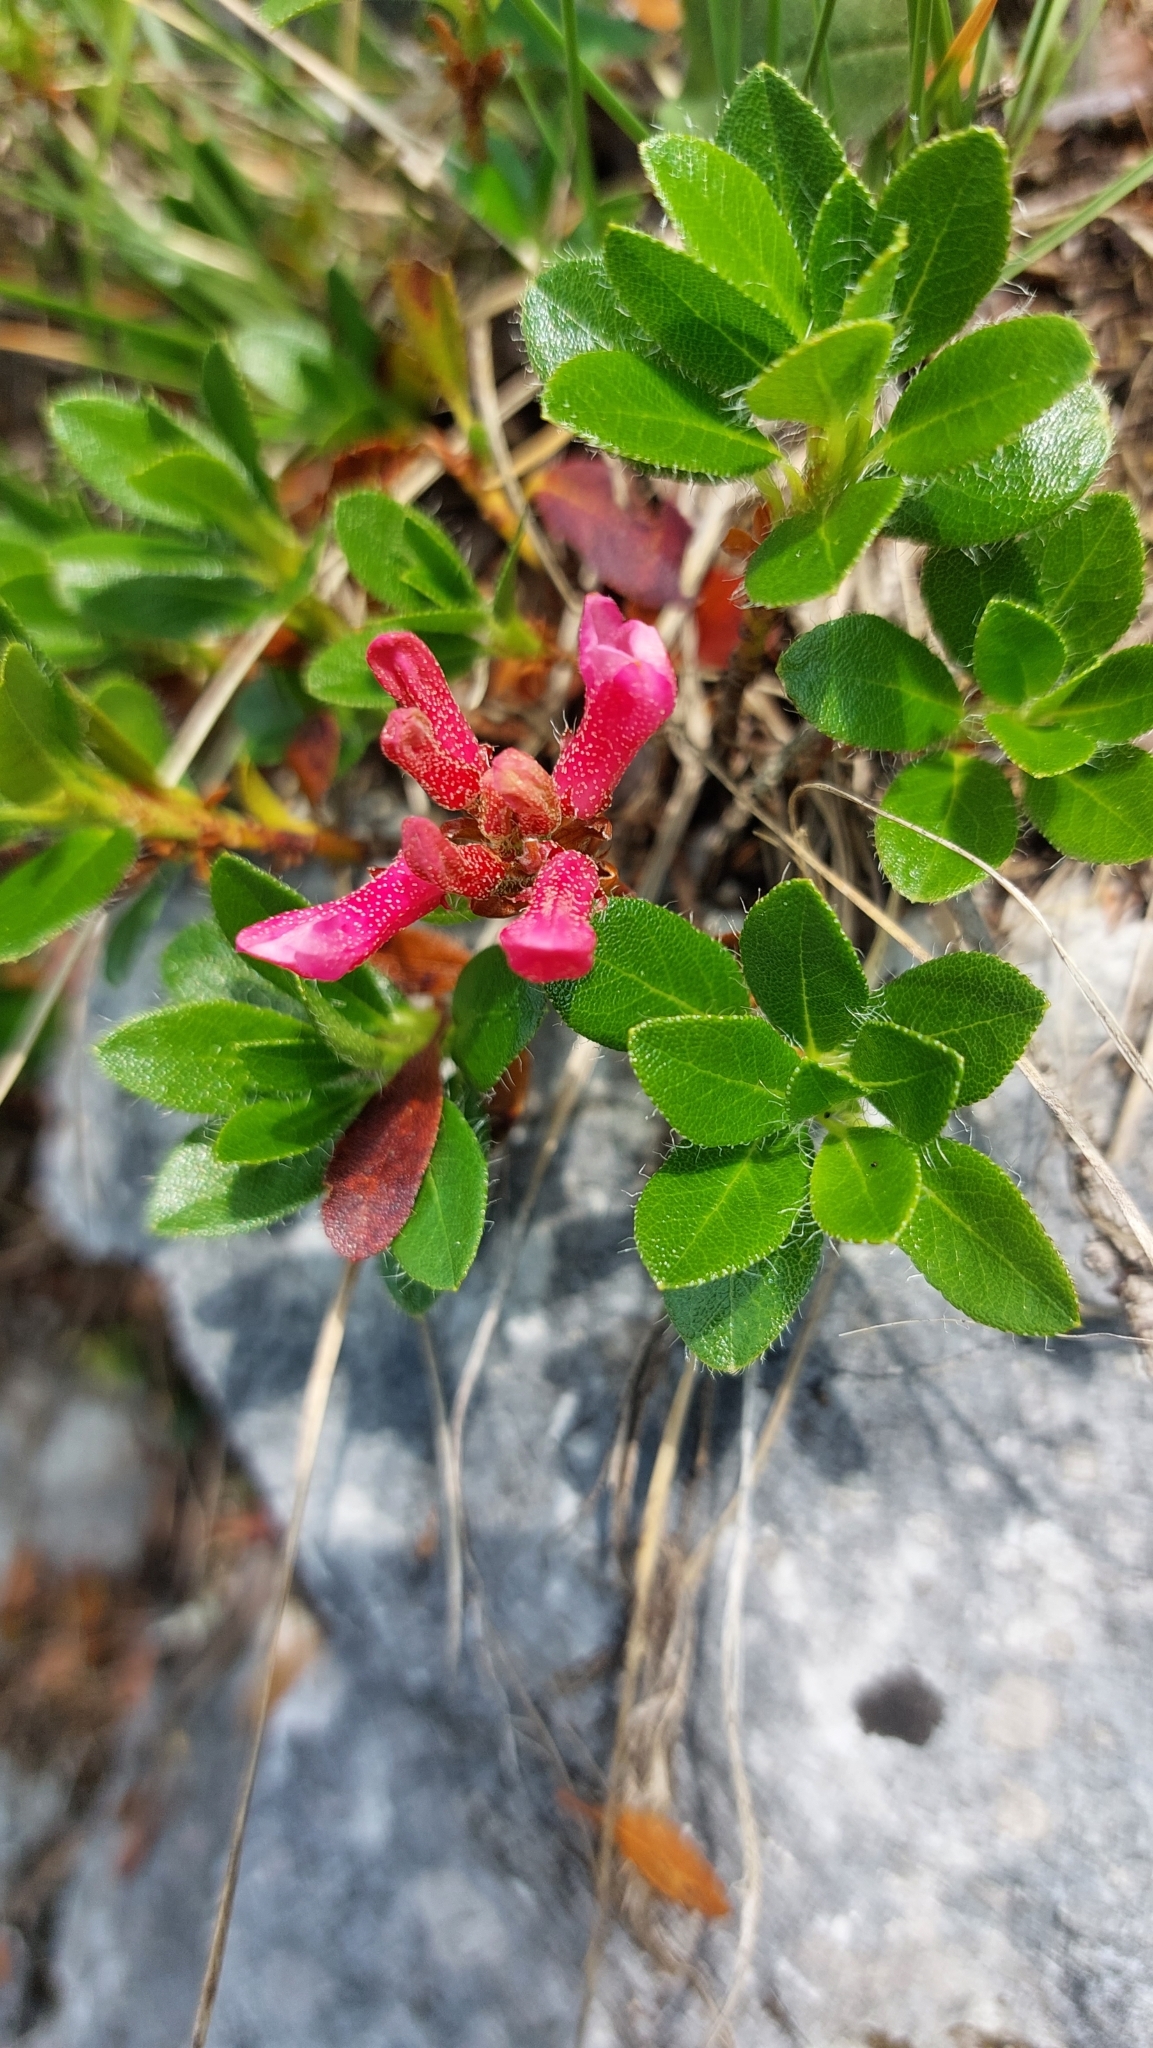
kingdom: Plantae
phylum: Tracheophyta
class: Magnoliopsida
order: Ericales
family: Ericaceae
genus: Rhododendron
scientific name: Rhododendron hirsutum
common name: Hairy alpenrose
